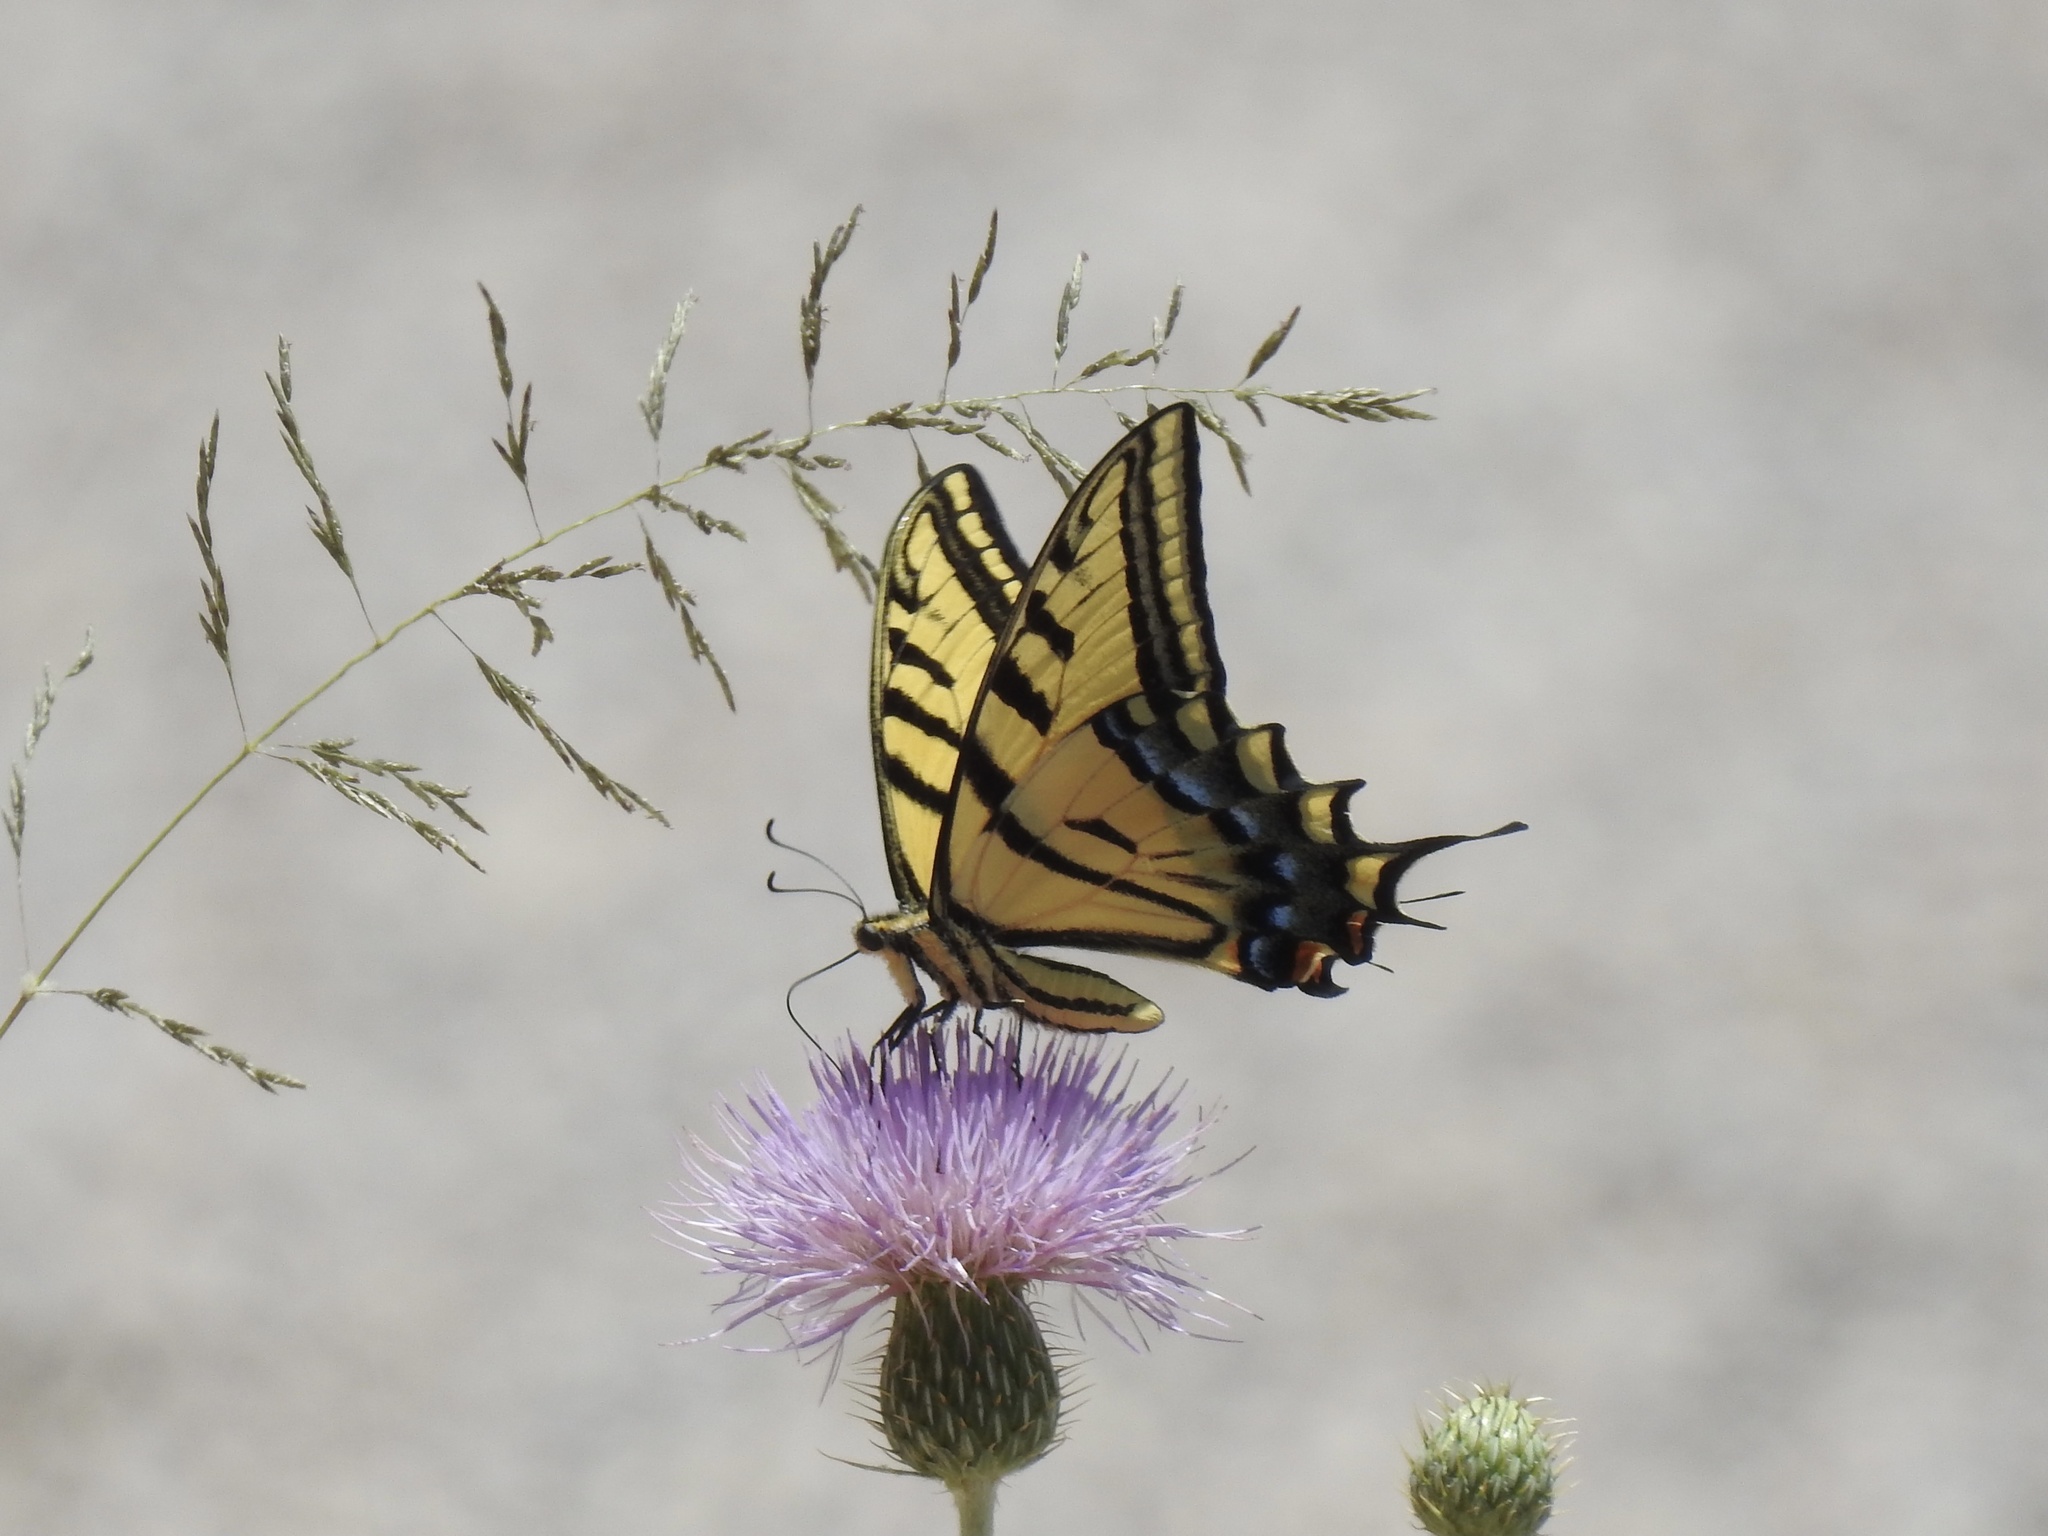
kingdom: Animalia
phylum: Arthropoda
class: Insecta
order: Lepidoptera
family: Papilionidae
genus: Papilio
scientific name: Papilio multicaudata
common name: Two-tailed tiger swallowtail
